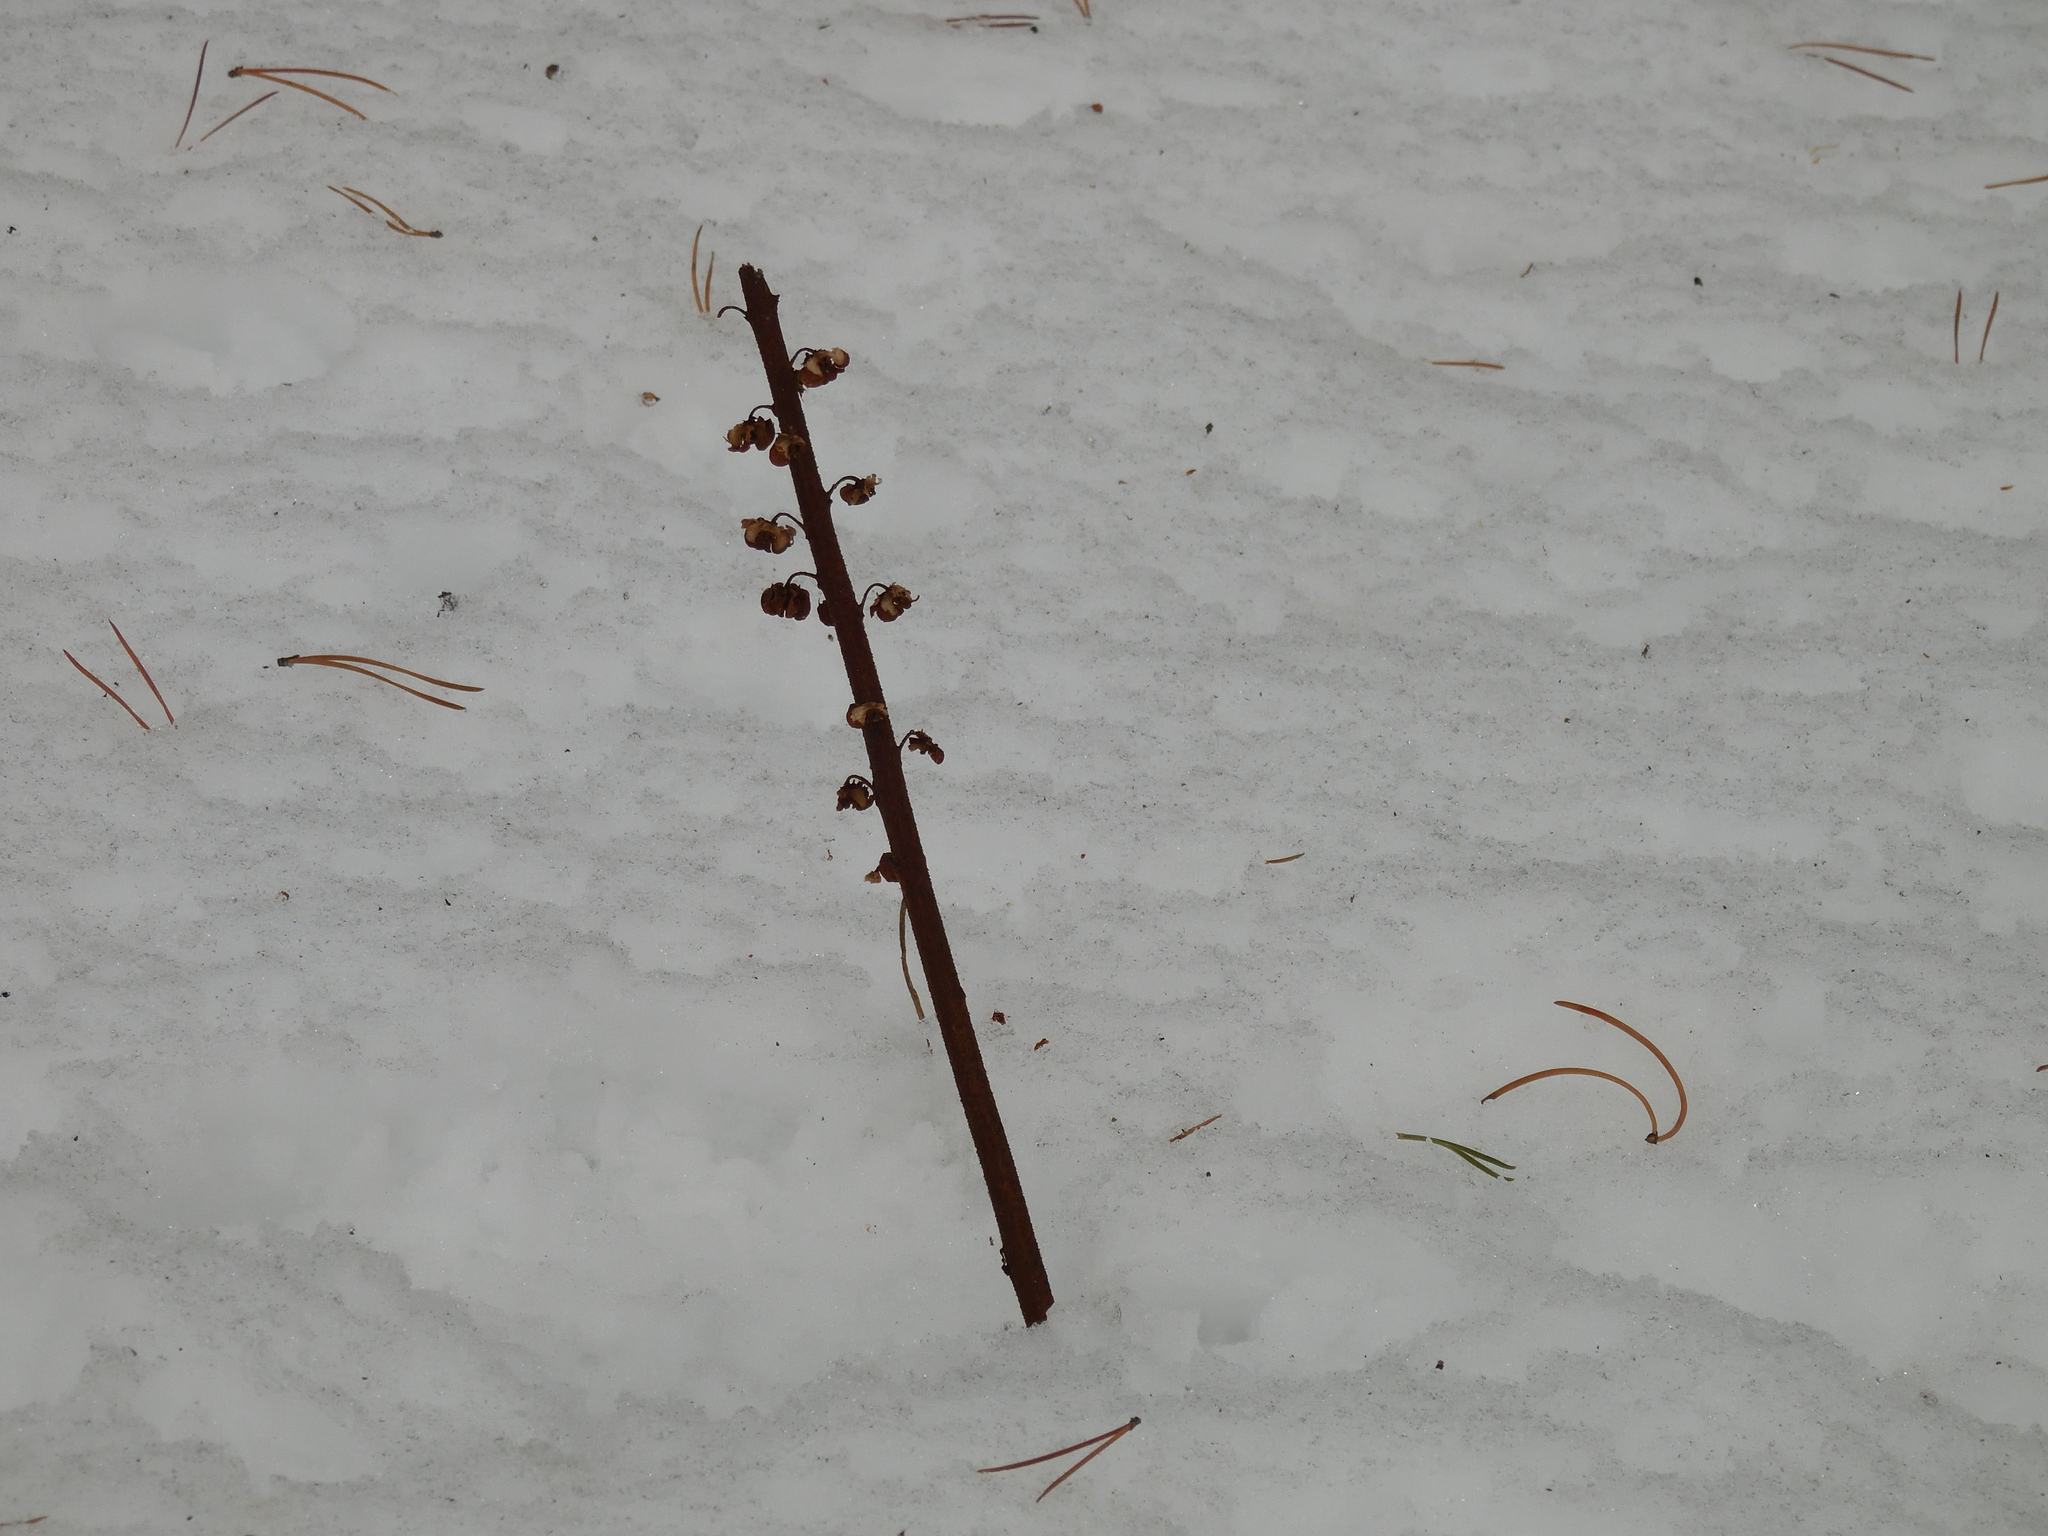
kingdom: Plantae
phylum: Tracheophyta
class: Magnoliopsida
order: Ericales
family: Ericaceae
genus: Pterospora
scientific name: Pterospora andromedea
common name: Giant bird's-nest
